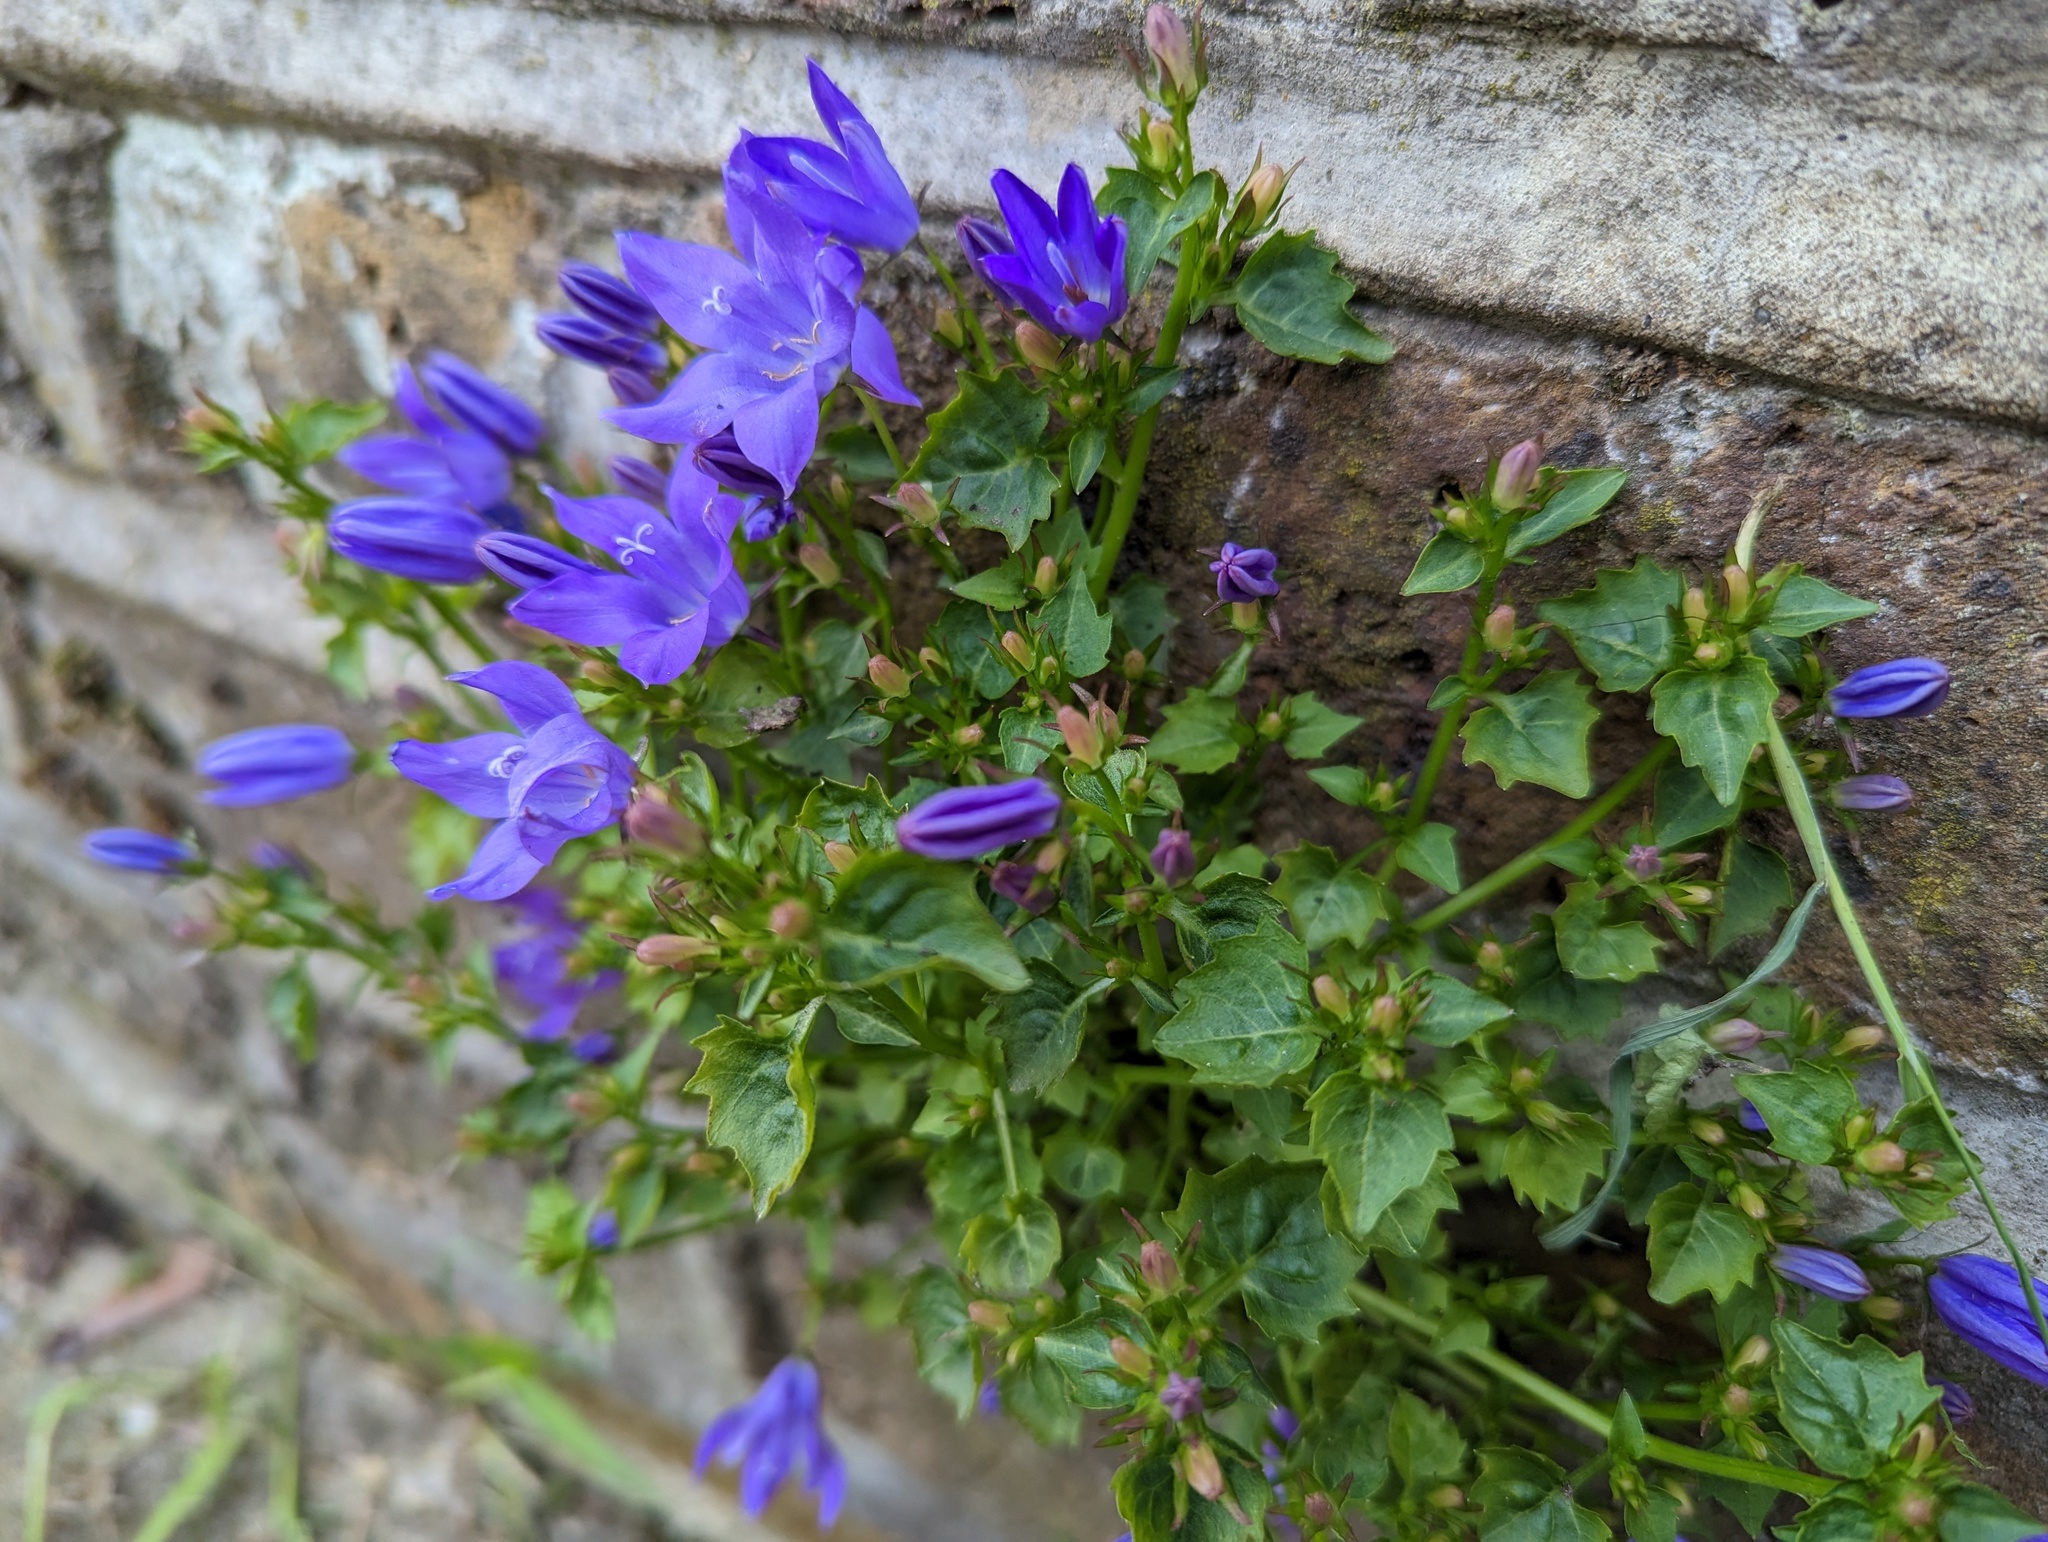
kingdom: Plantae
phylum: Tracheophyta
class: Magnoliopsida
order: Asterales
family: Campanulaceae
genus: Campanula
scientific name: Campanula poscharskyana
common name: Trailing bellflower
